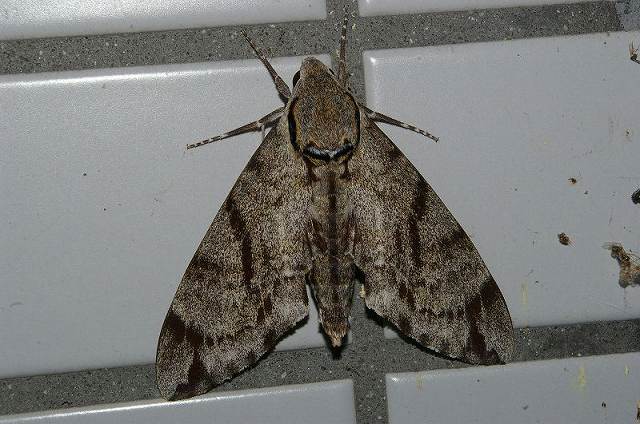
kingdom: Animalia
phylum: Arthropoda
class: Insecta
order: Lepidoptera
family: Sphingidae
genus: Notonagemia
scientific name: Notonagemia analis
